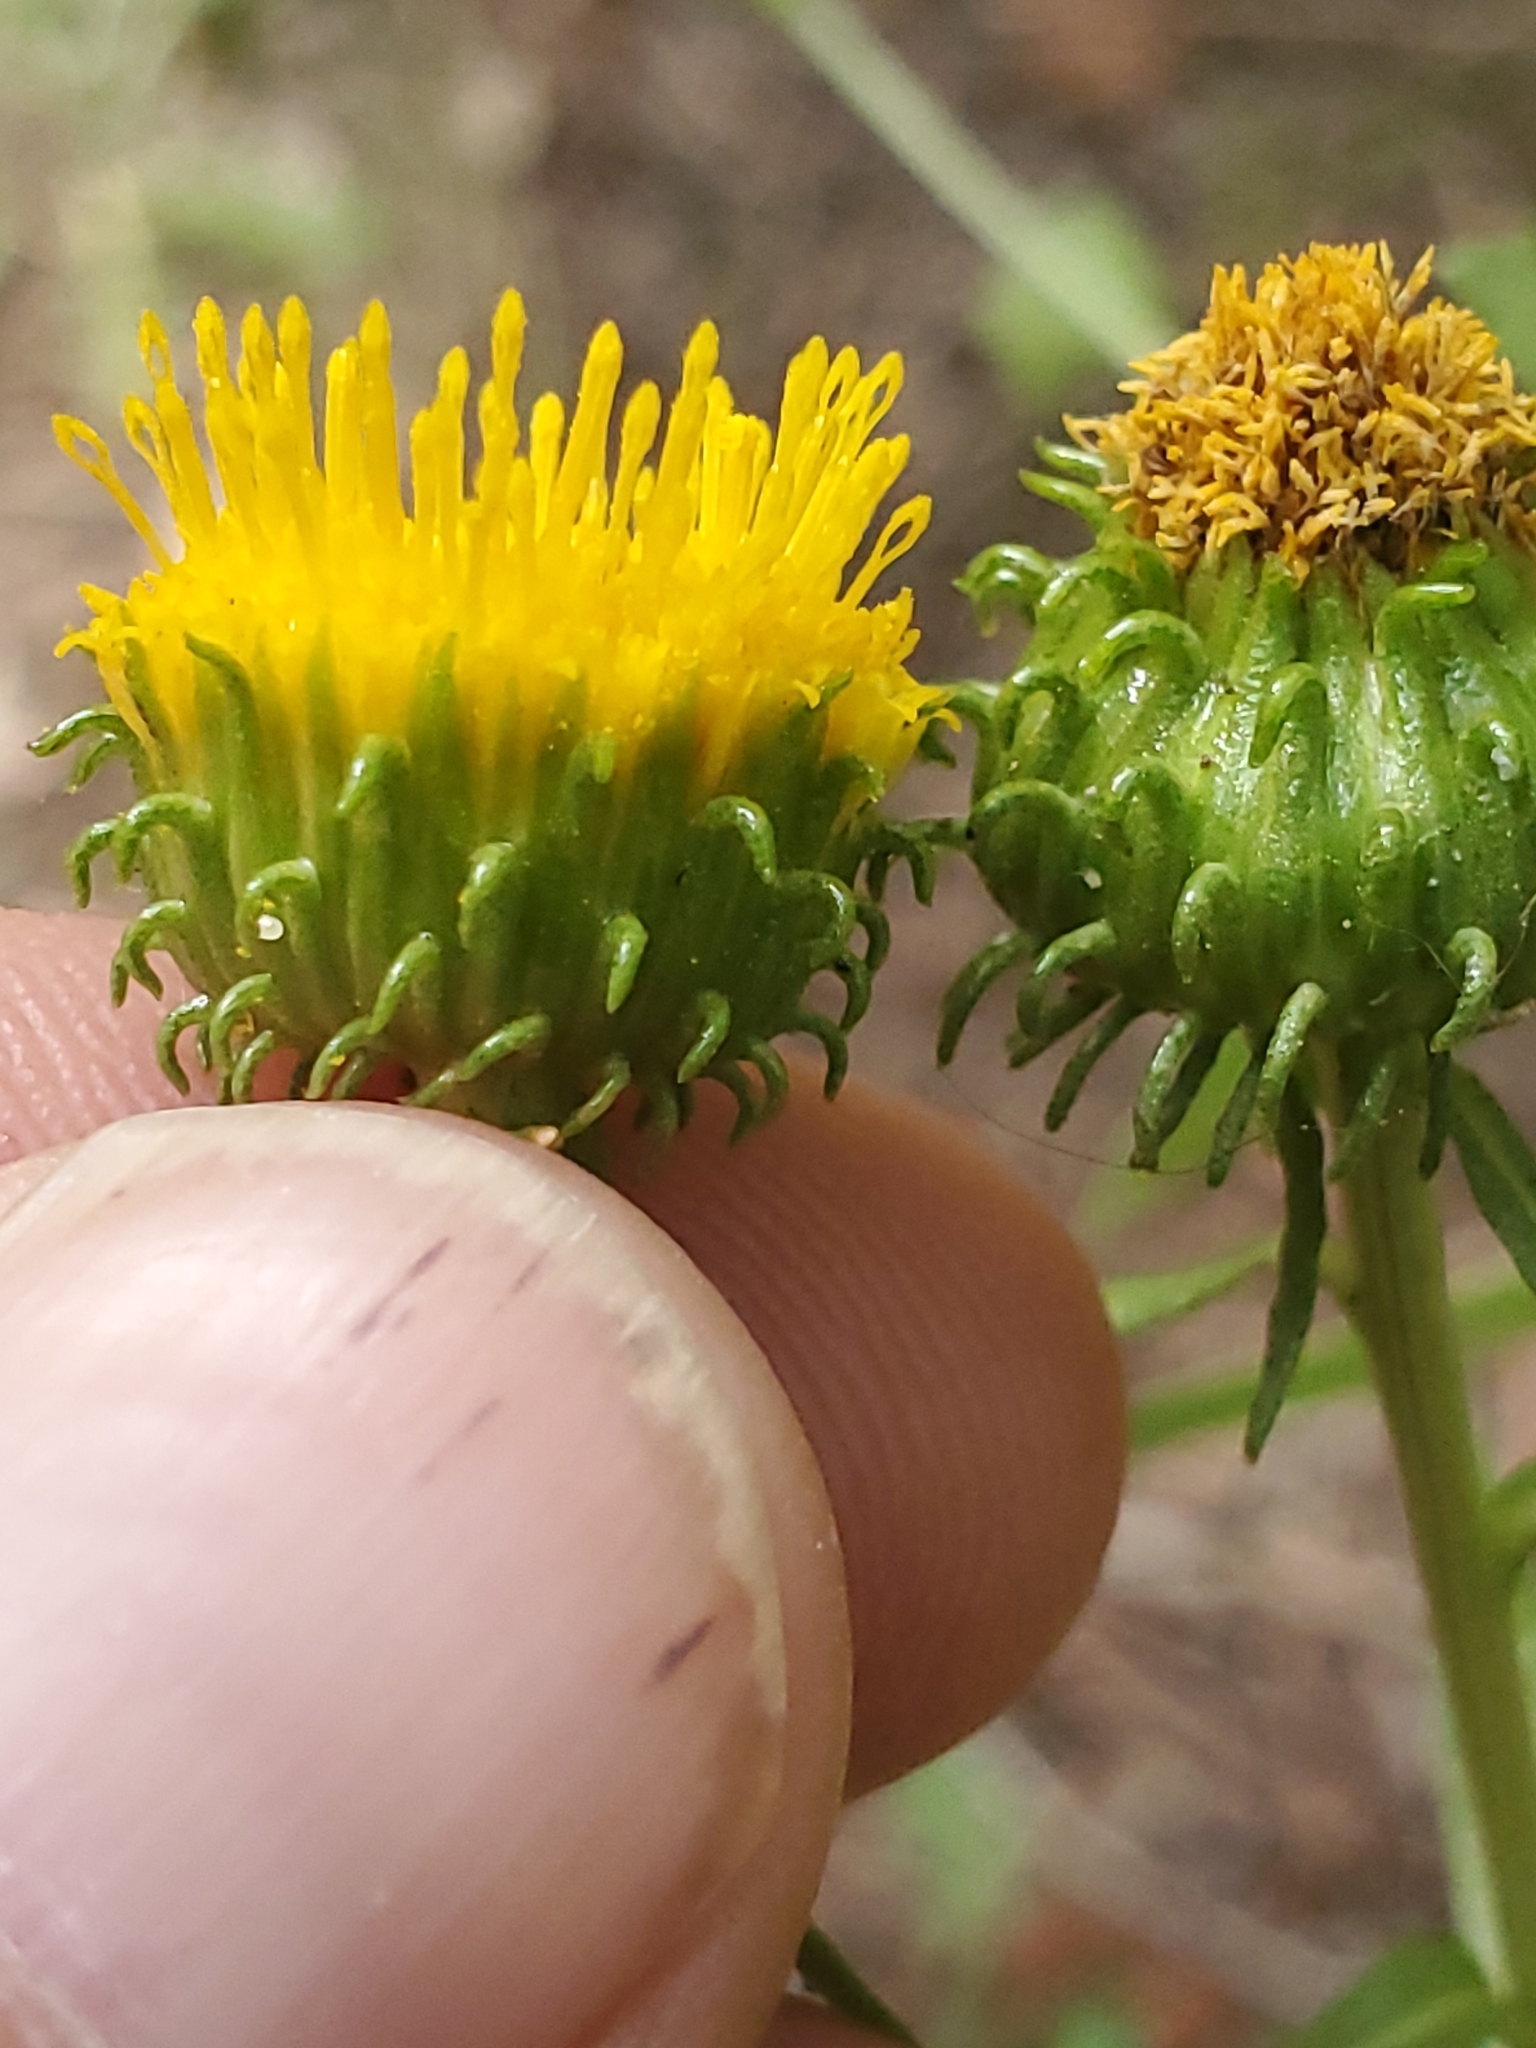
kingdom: Plantae
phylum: Tracheophyta
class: Magnoliopsida
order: Asterales
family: Asteraceae
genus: Grindelia
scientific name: Grindelia squarrosa
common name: Curly-cup gumweed
